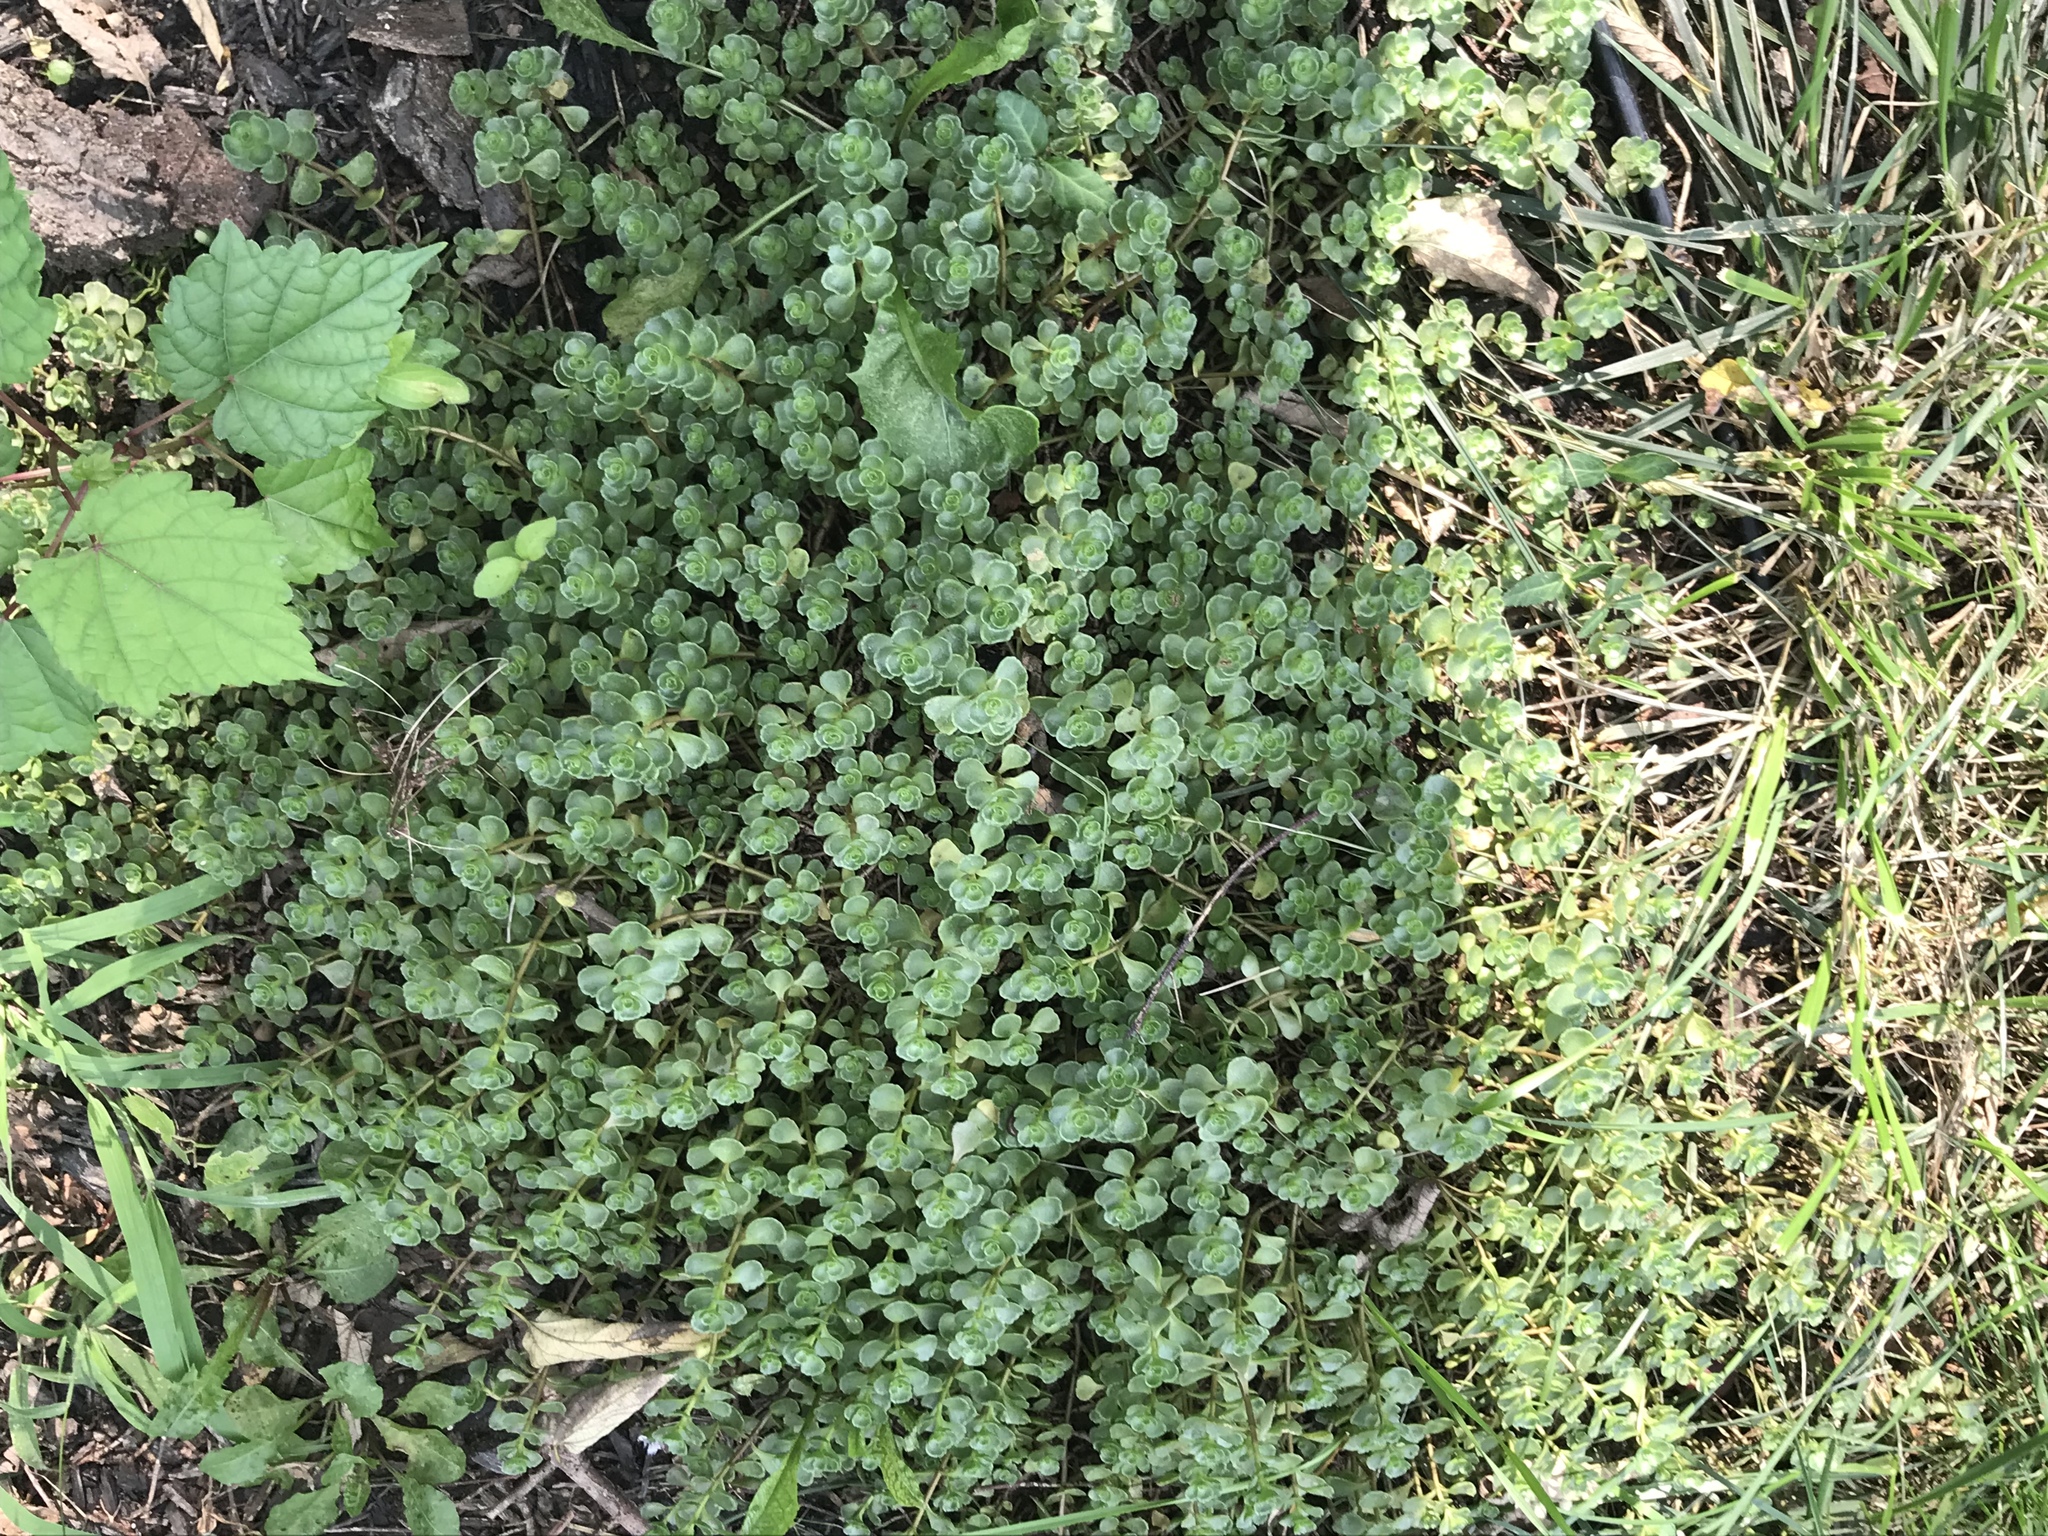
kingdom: Plantae
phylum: Tracheophyta
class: Magnoliopsida
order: Saxifragales
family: Crassulaceae
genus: Phedimus
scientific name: Phedimus spurius
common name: Caucasian stonecrop
